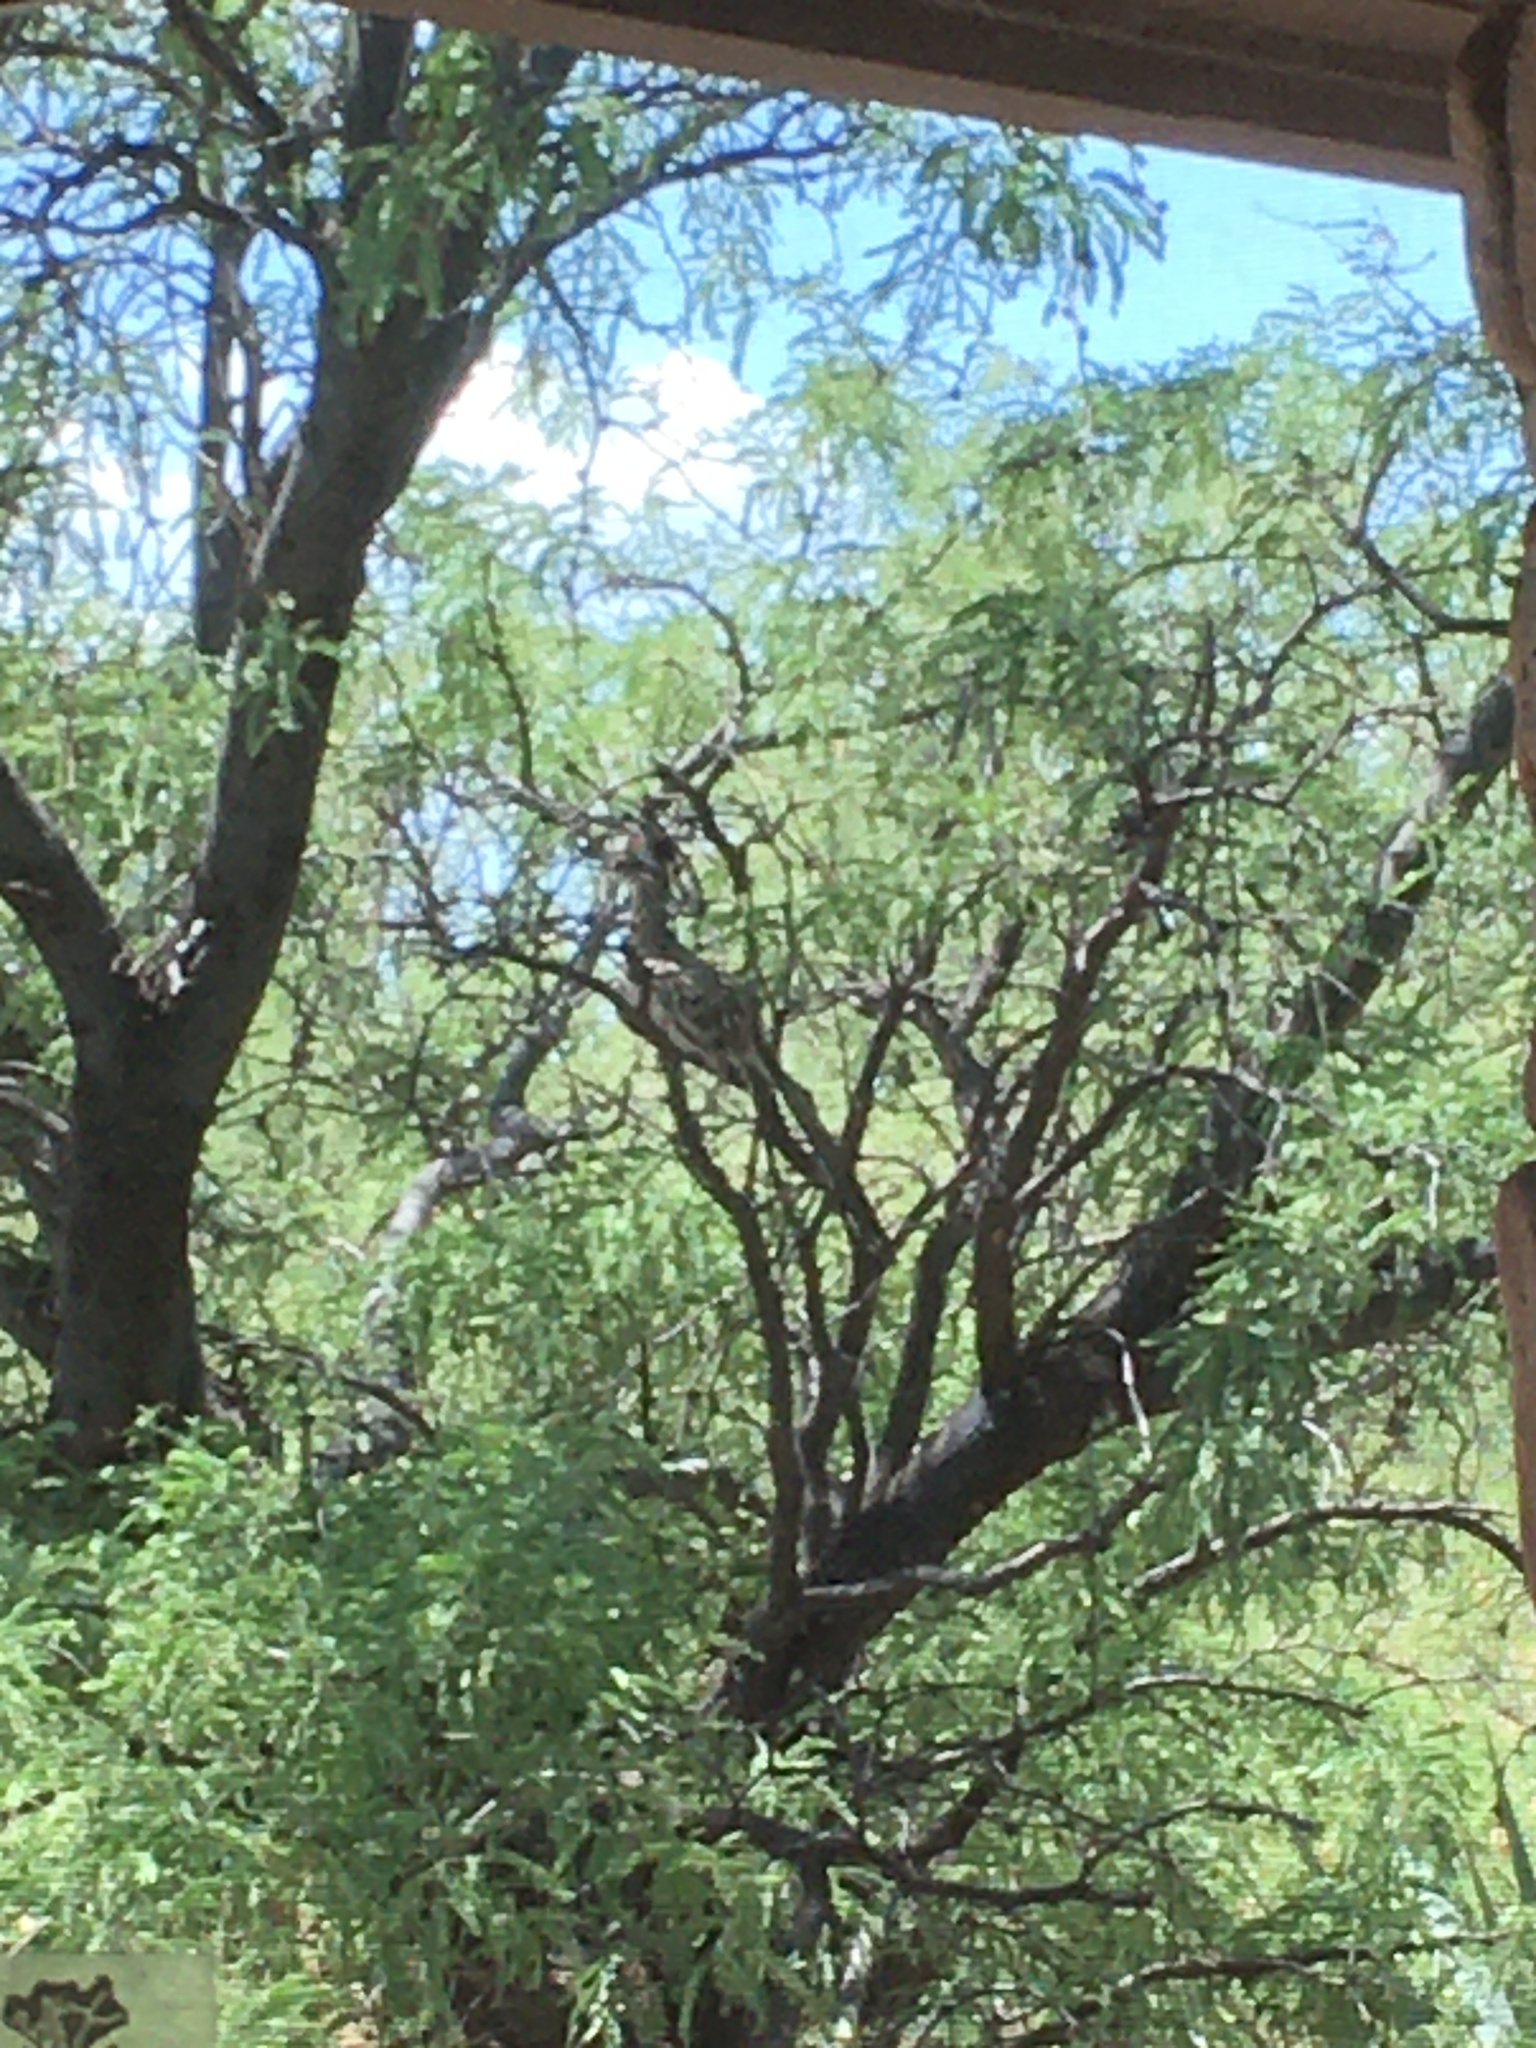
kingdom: Animalia
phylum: Chordata
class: Aves
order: Cuculiformes
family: Cuculidae
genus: Geococcyx
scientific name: Geococcyx californianus
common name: Greater roadrunner
